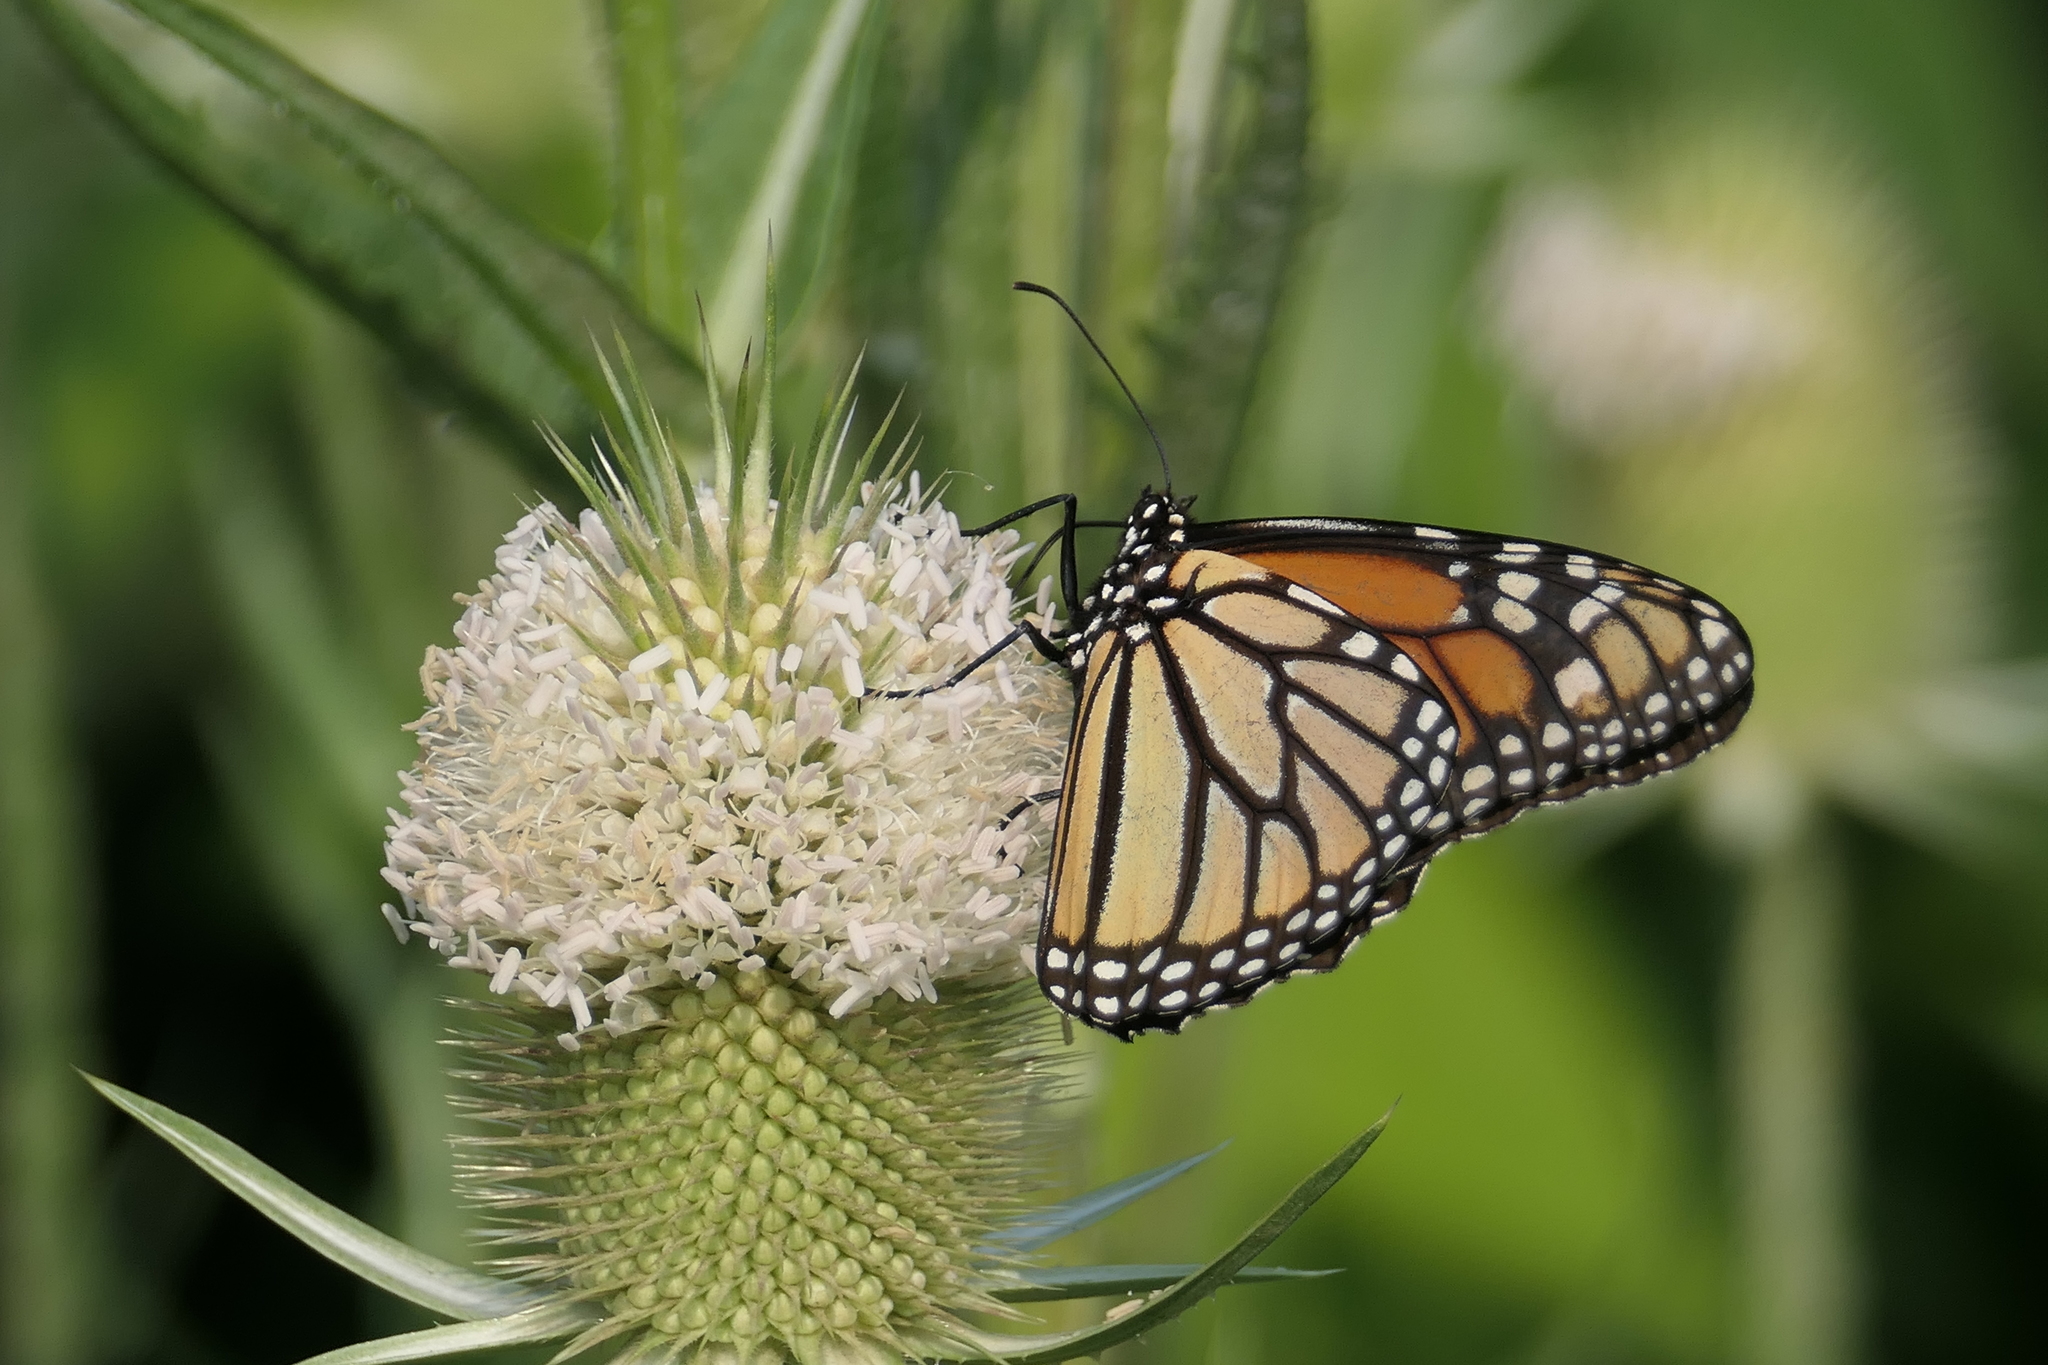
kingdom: Animalia
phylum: Arthropoda
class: Insecta
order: Lepidoptera
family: Nymphalidae
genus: Danaus
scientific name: Danaus plexippus
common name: Monarch
